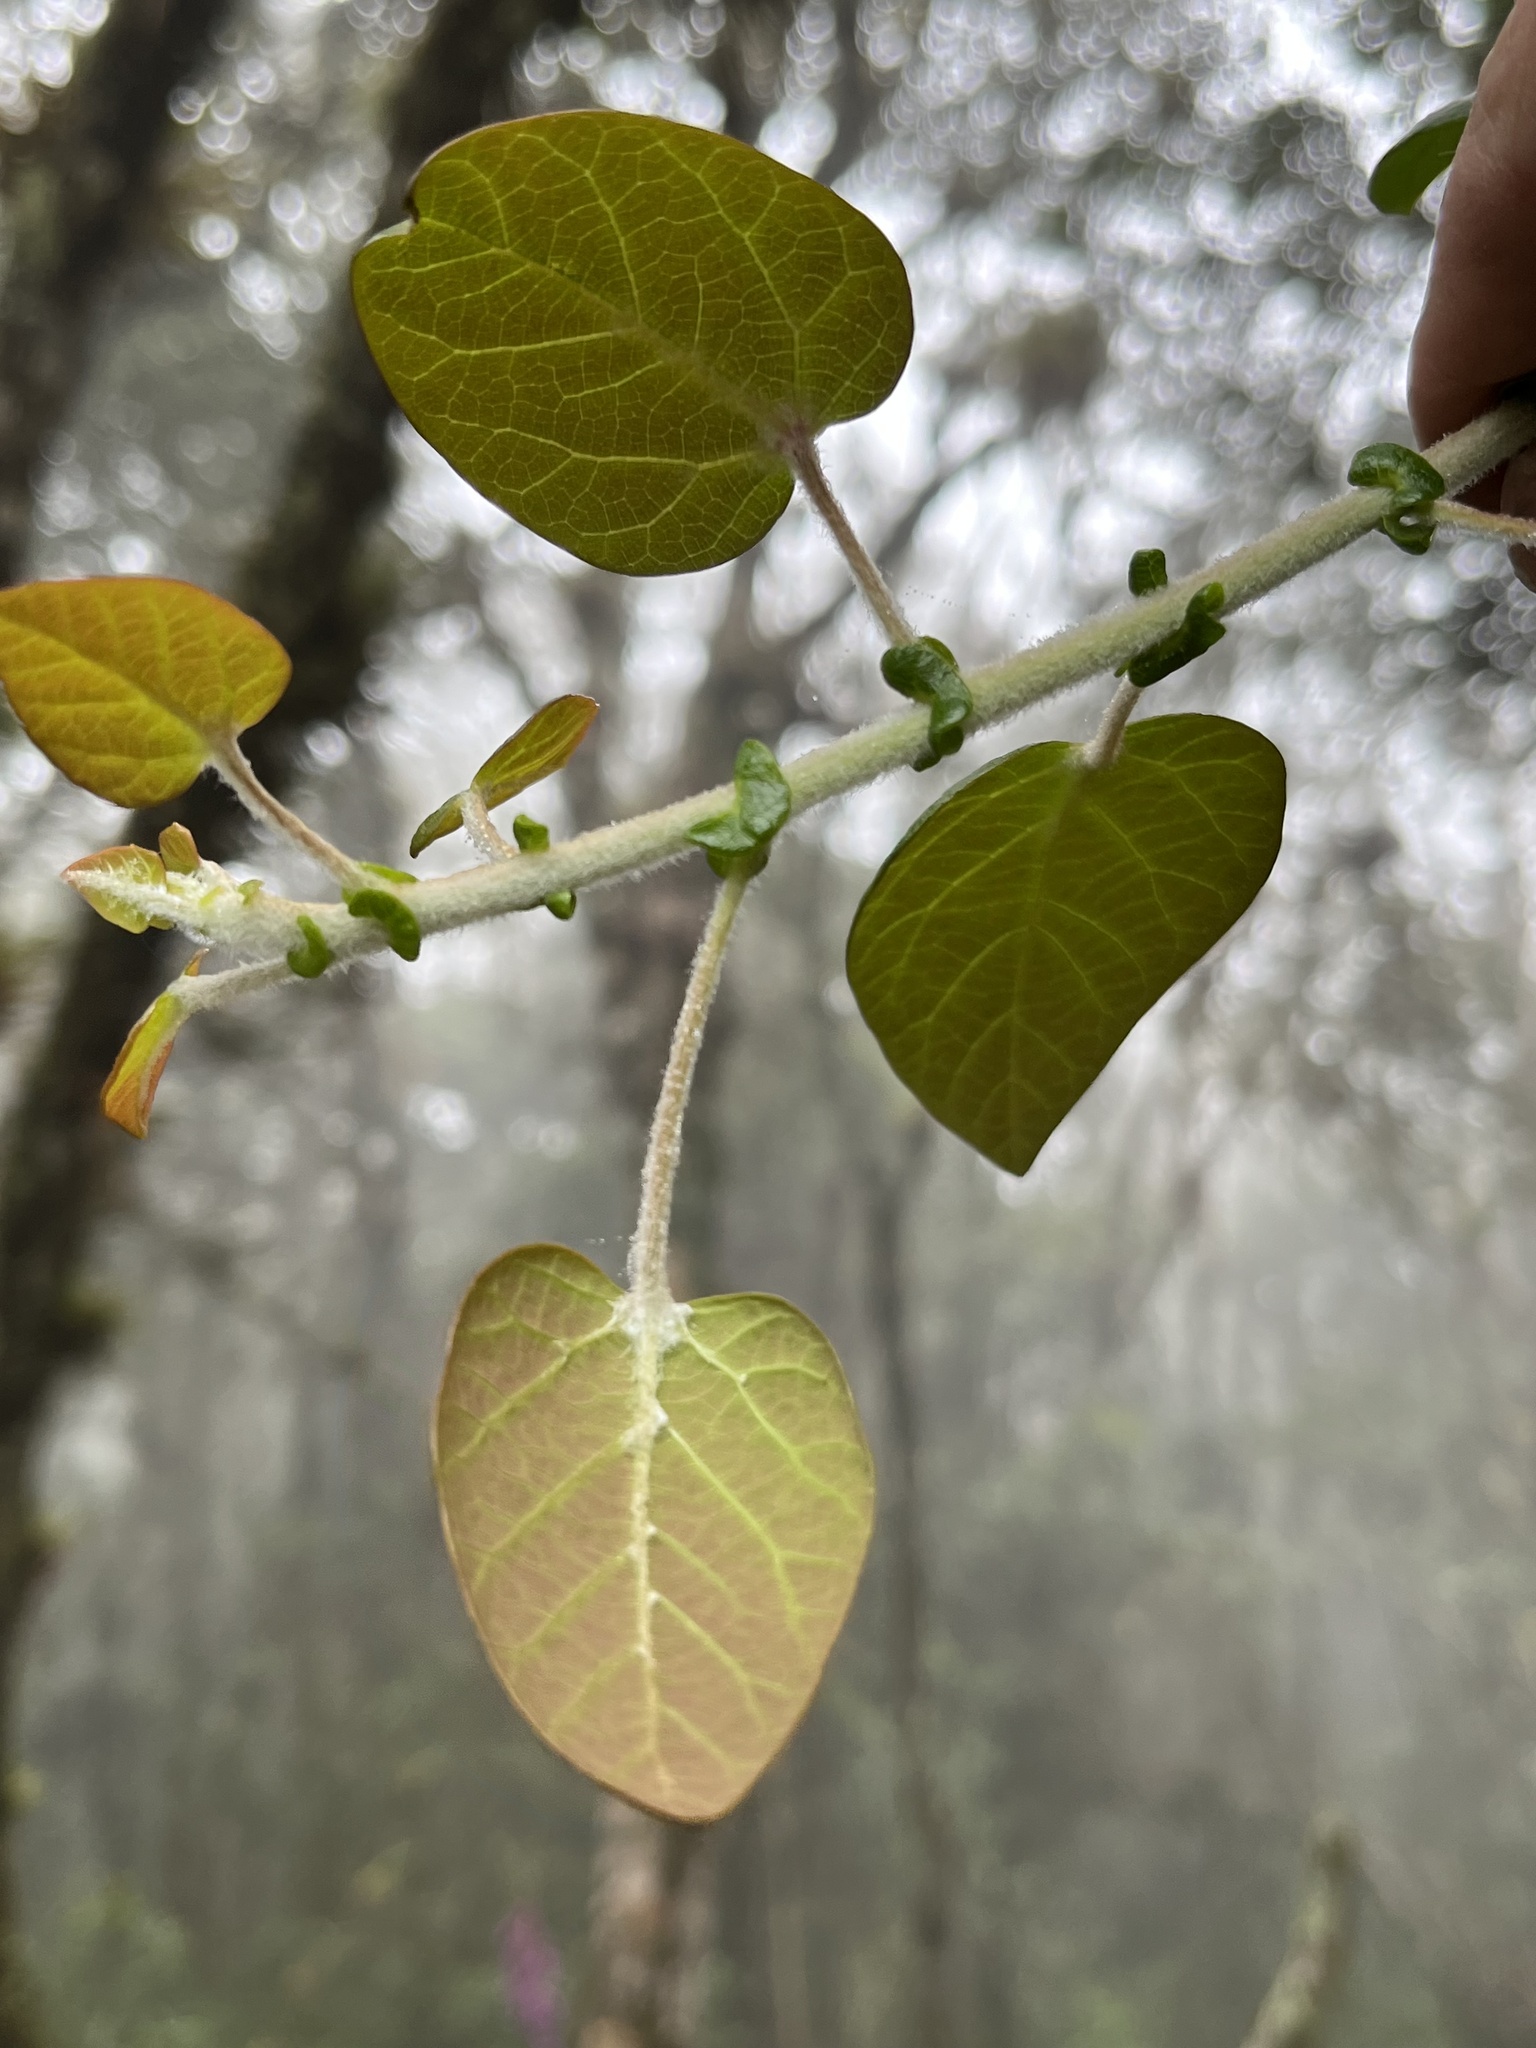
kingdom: Plantae
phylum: Tracheophyta
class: Magnoliopsida
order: Oxalidales
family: Elaeocarpaceae
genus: Vallea
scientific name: Vallea stipularis
